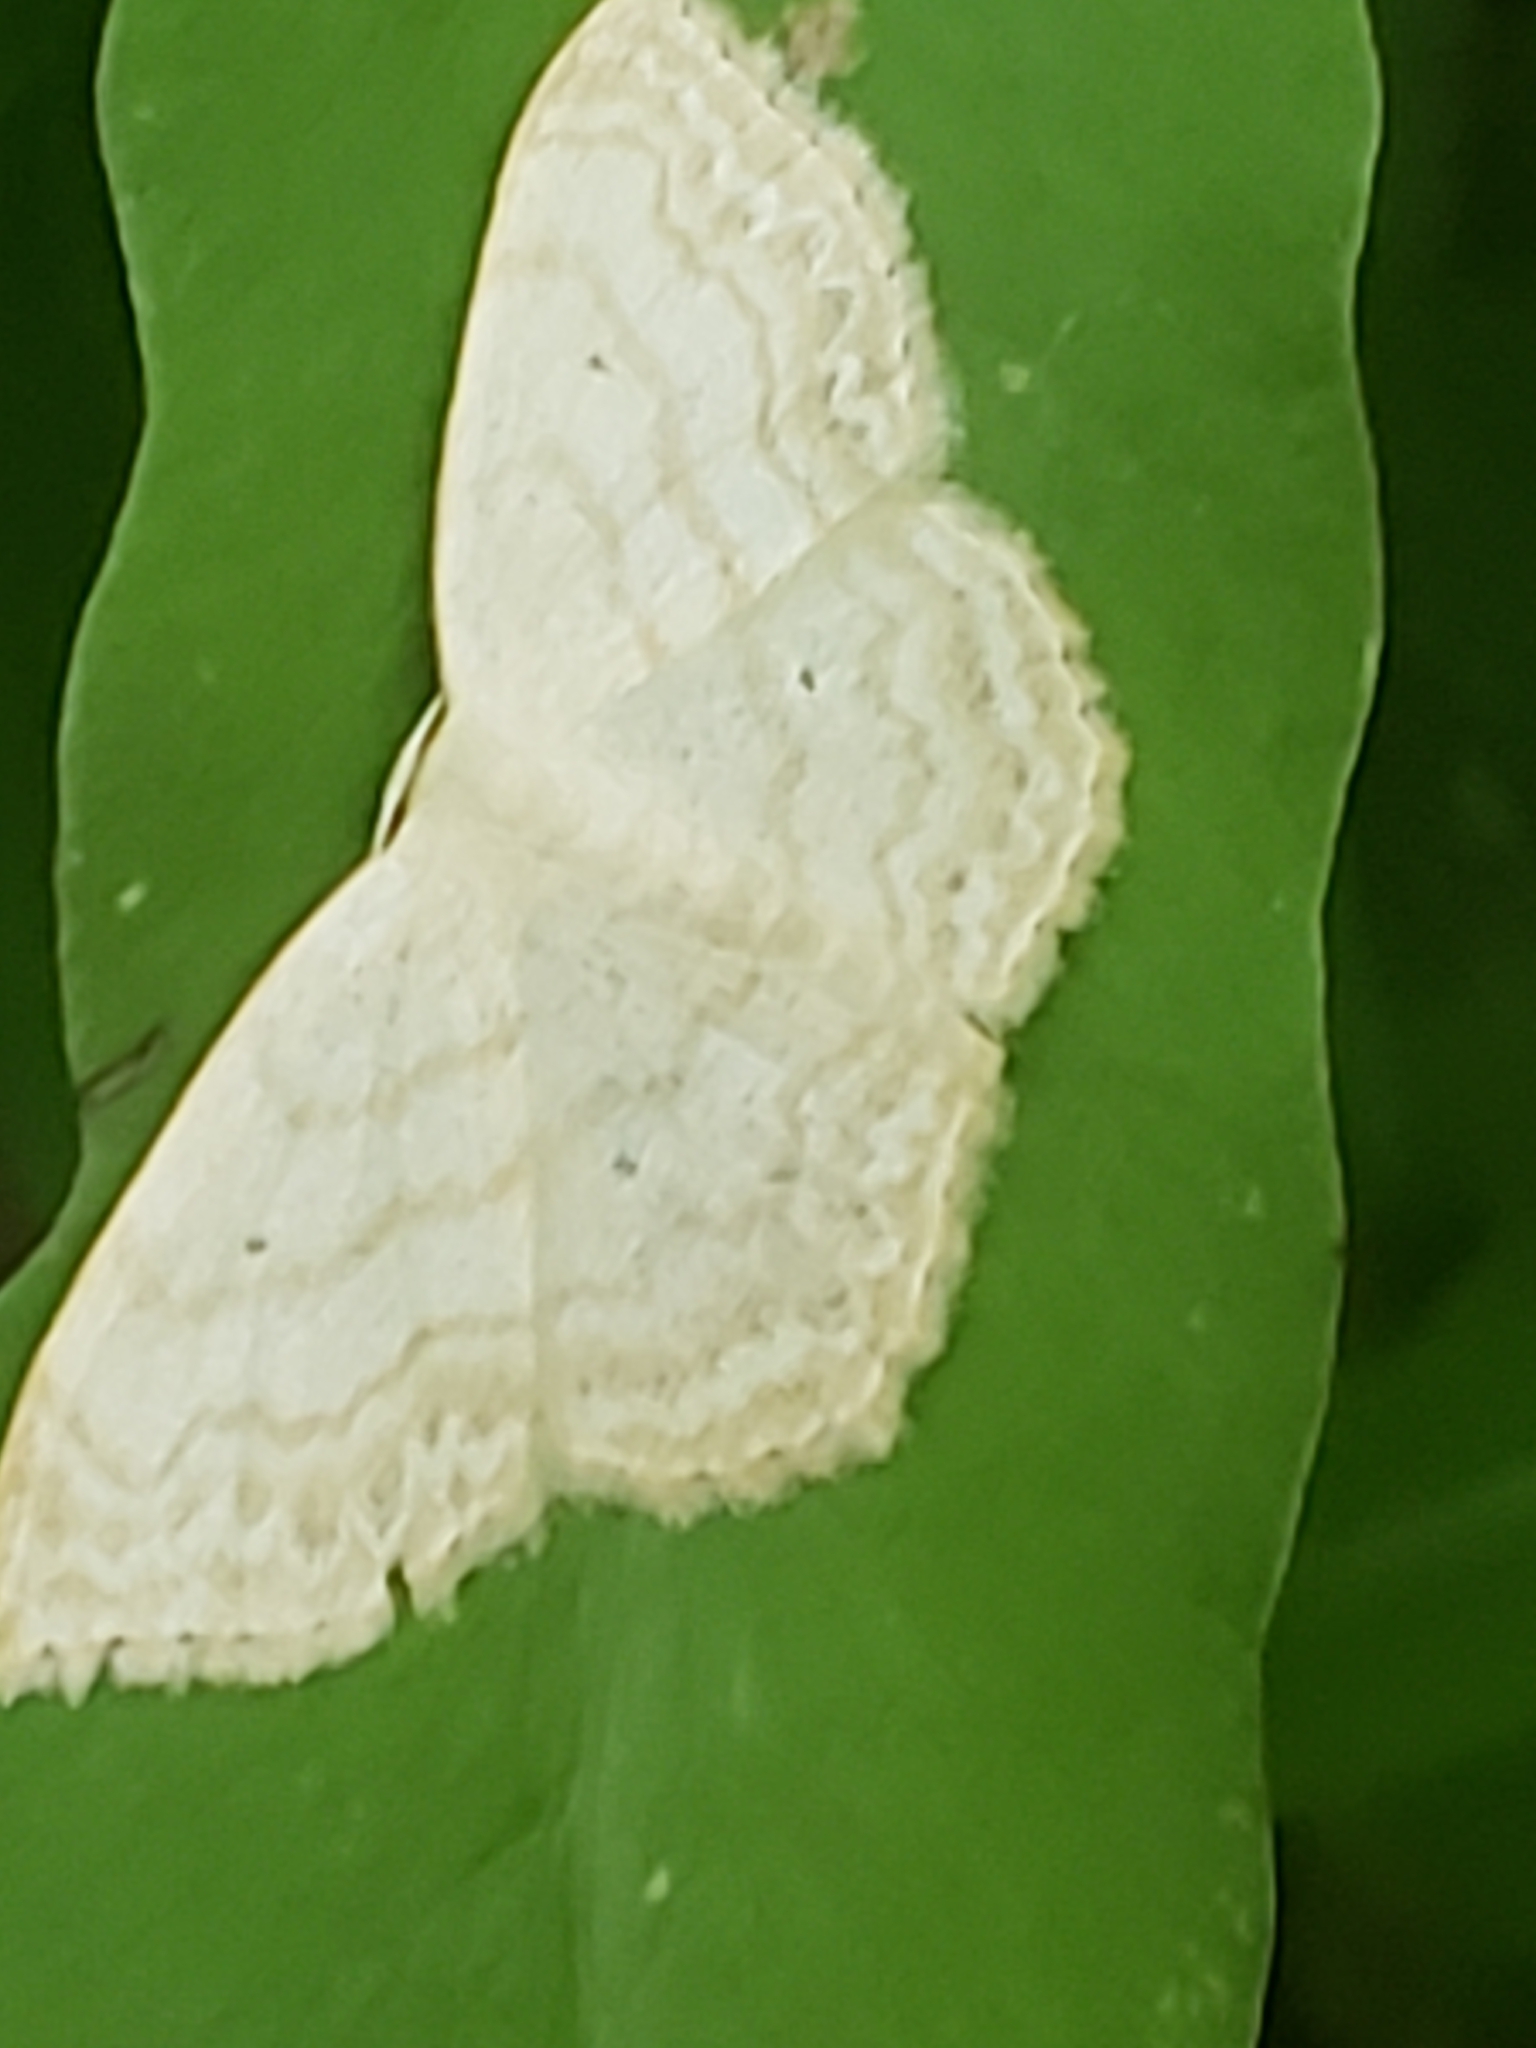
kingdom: Animalia
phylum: Arthropoda
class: Insecta
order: Lepidoptera
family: Geometridae
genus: Scopula
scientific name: Scopula limboundata
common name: Large lace border
